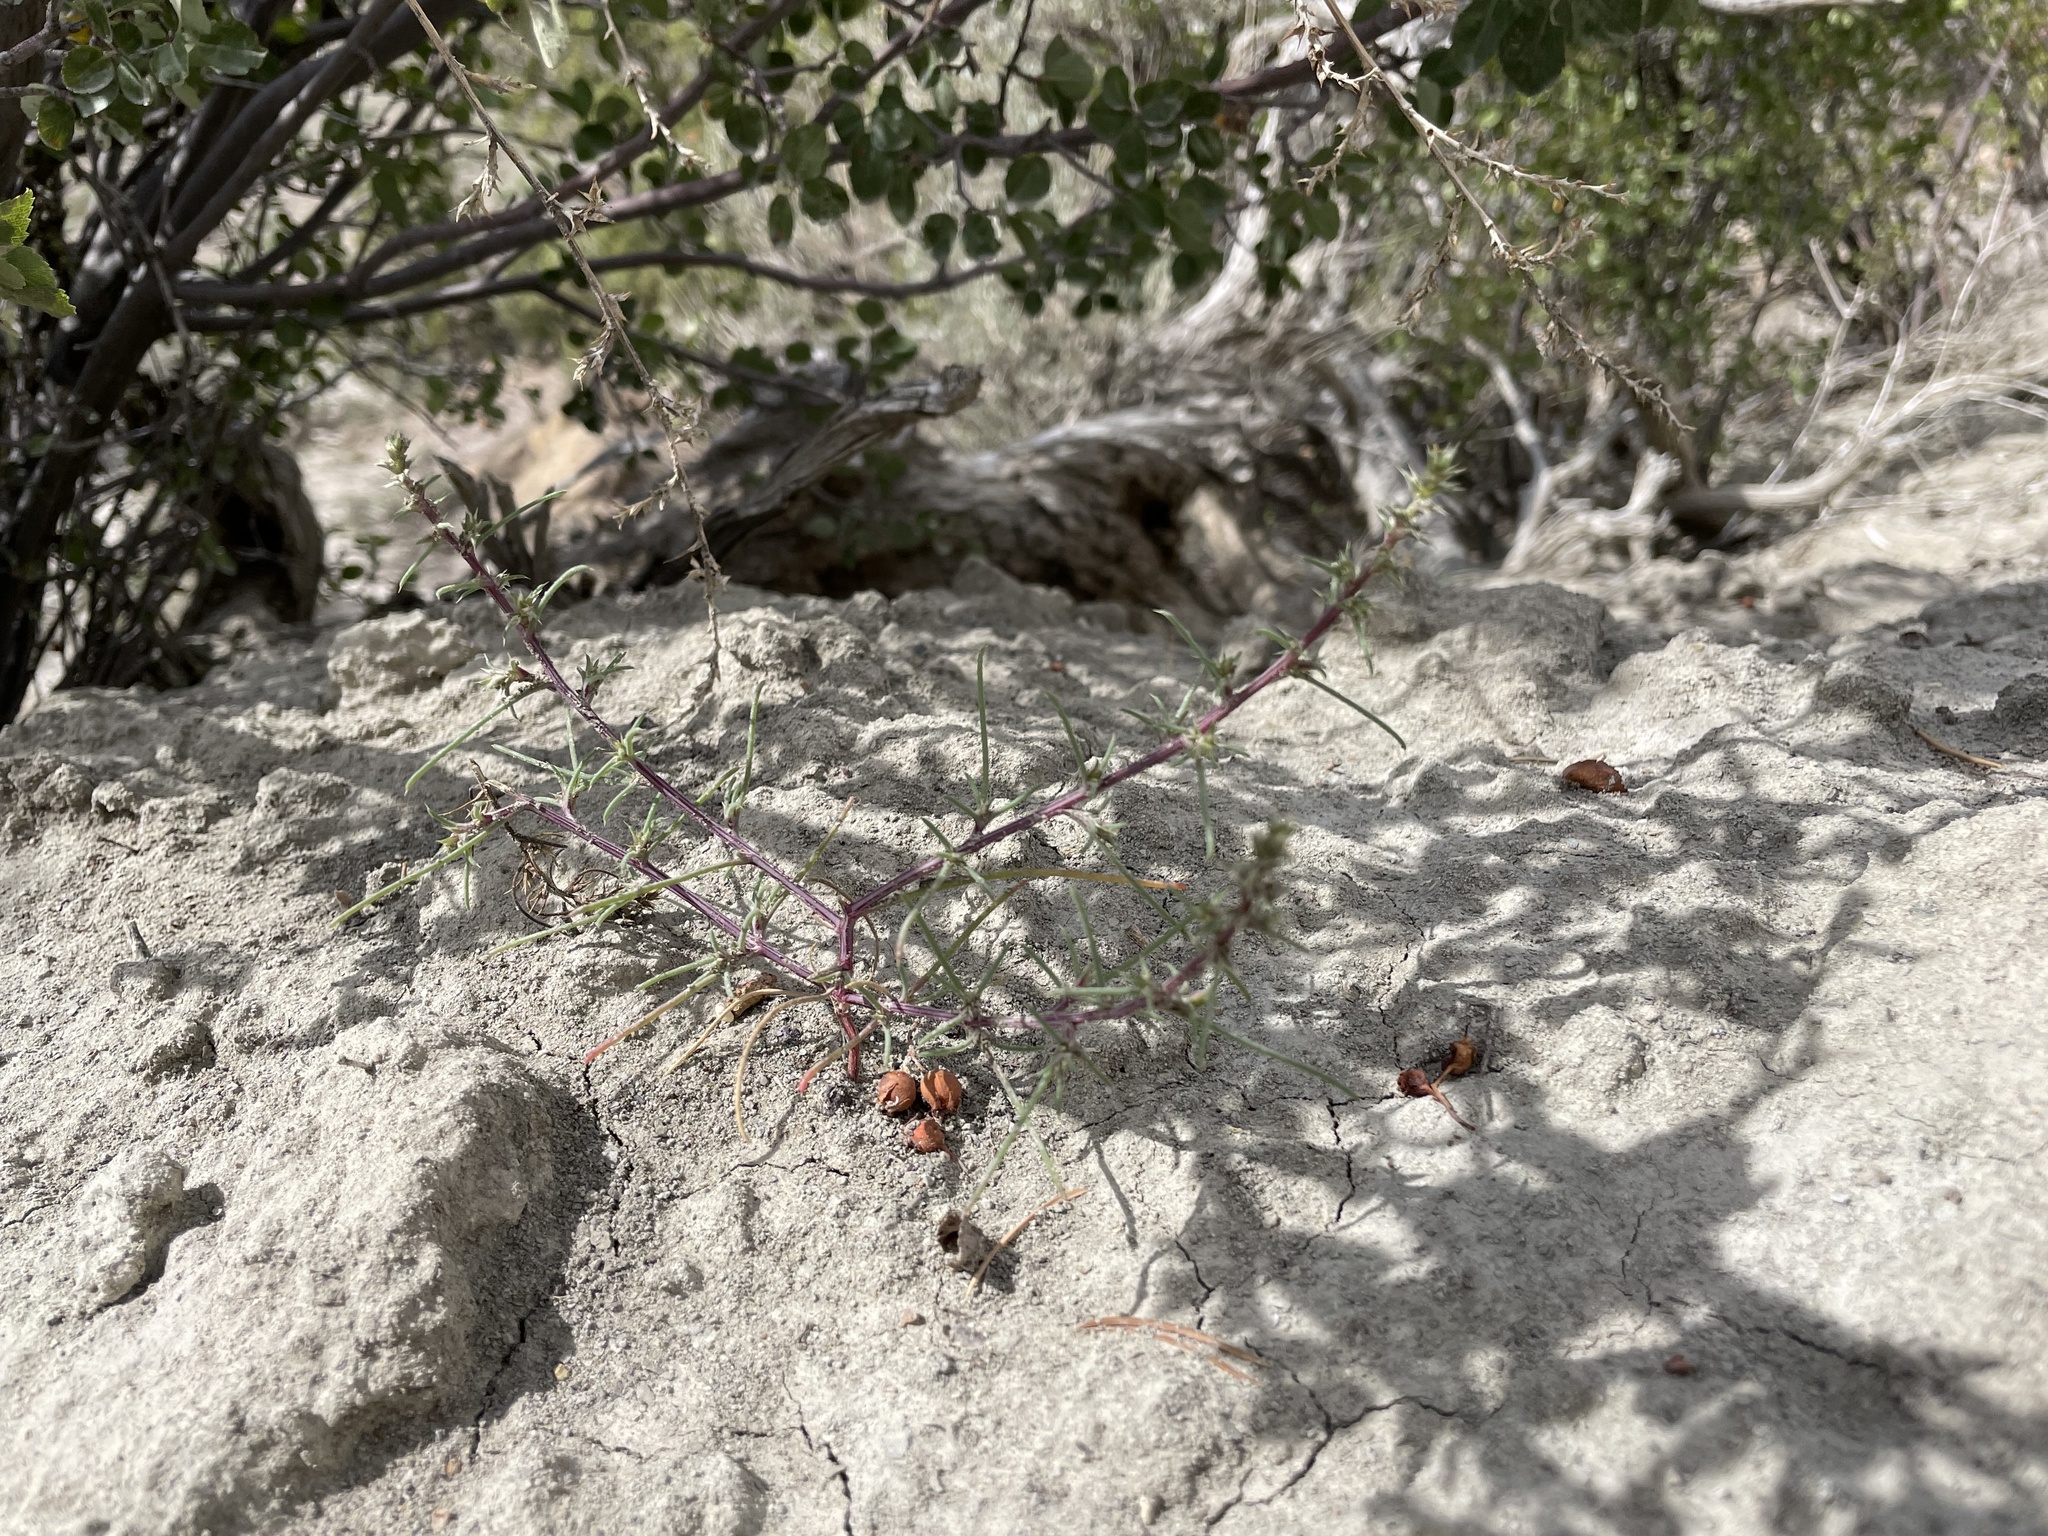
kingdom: Plantae
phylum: Tracheophyta
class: Magnoliopsida
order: Caryophyllales
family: Amaranthaceae
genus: Salsola
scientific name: Salsola tragus
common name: Prickly russian thistle
